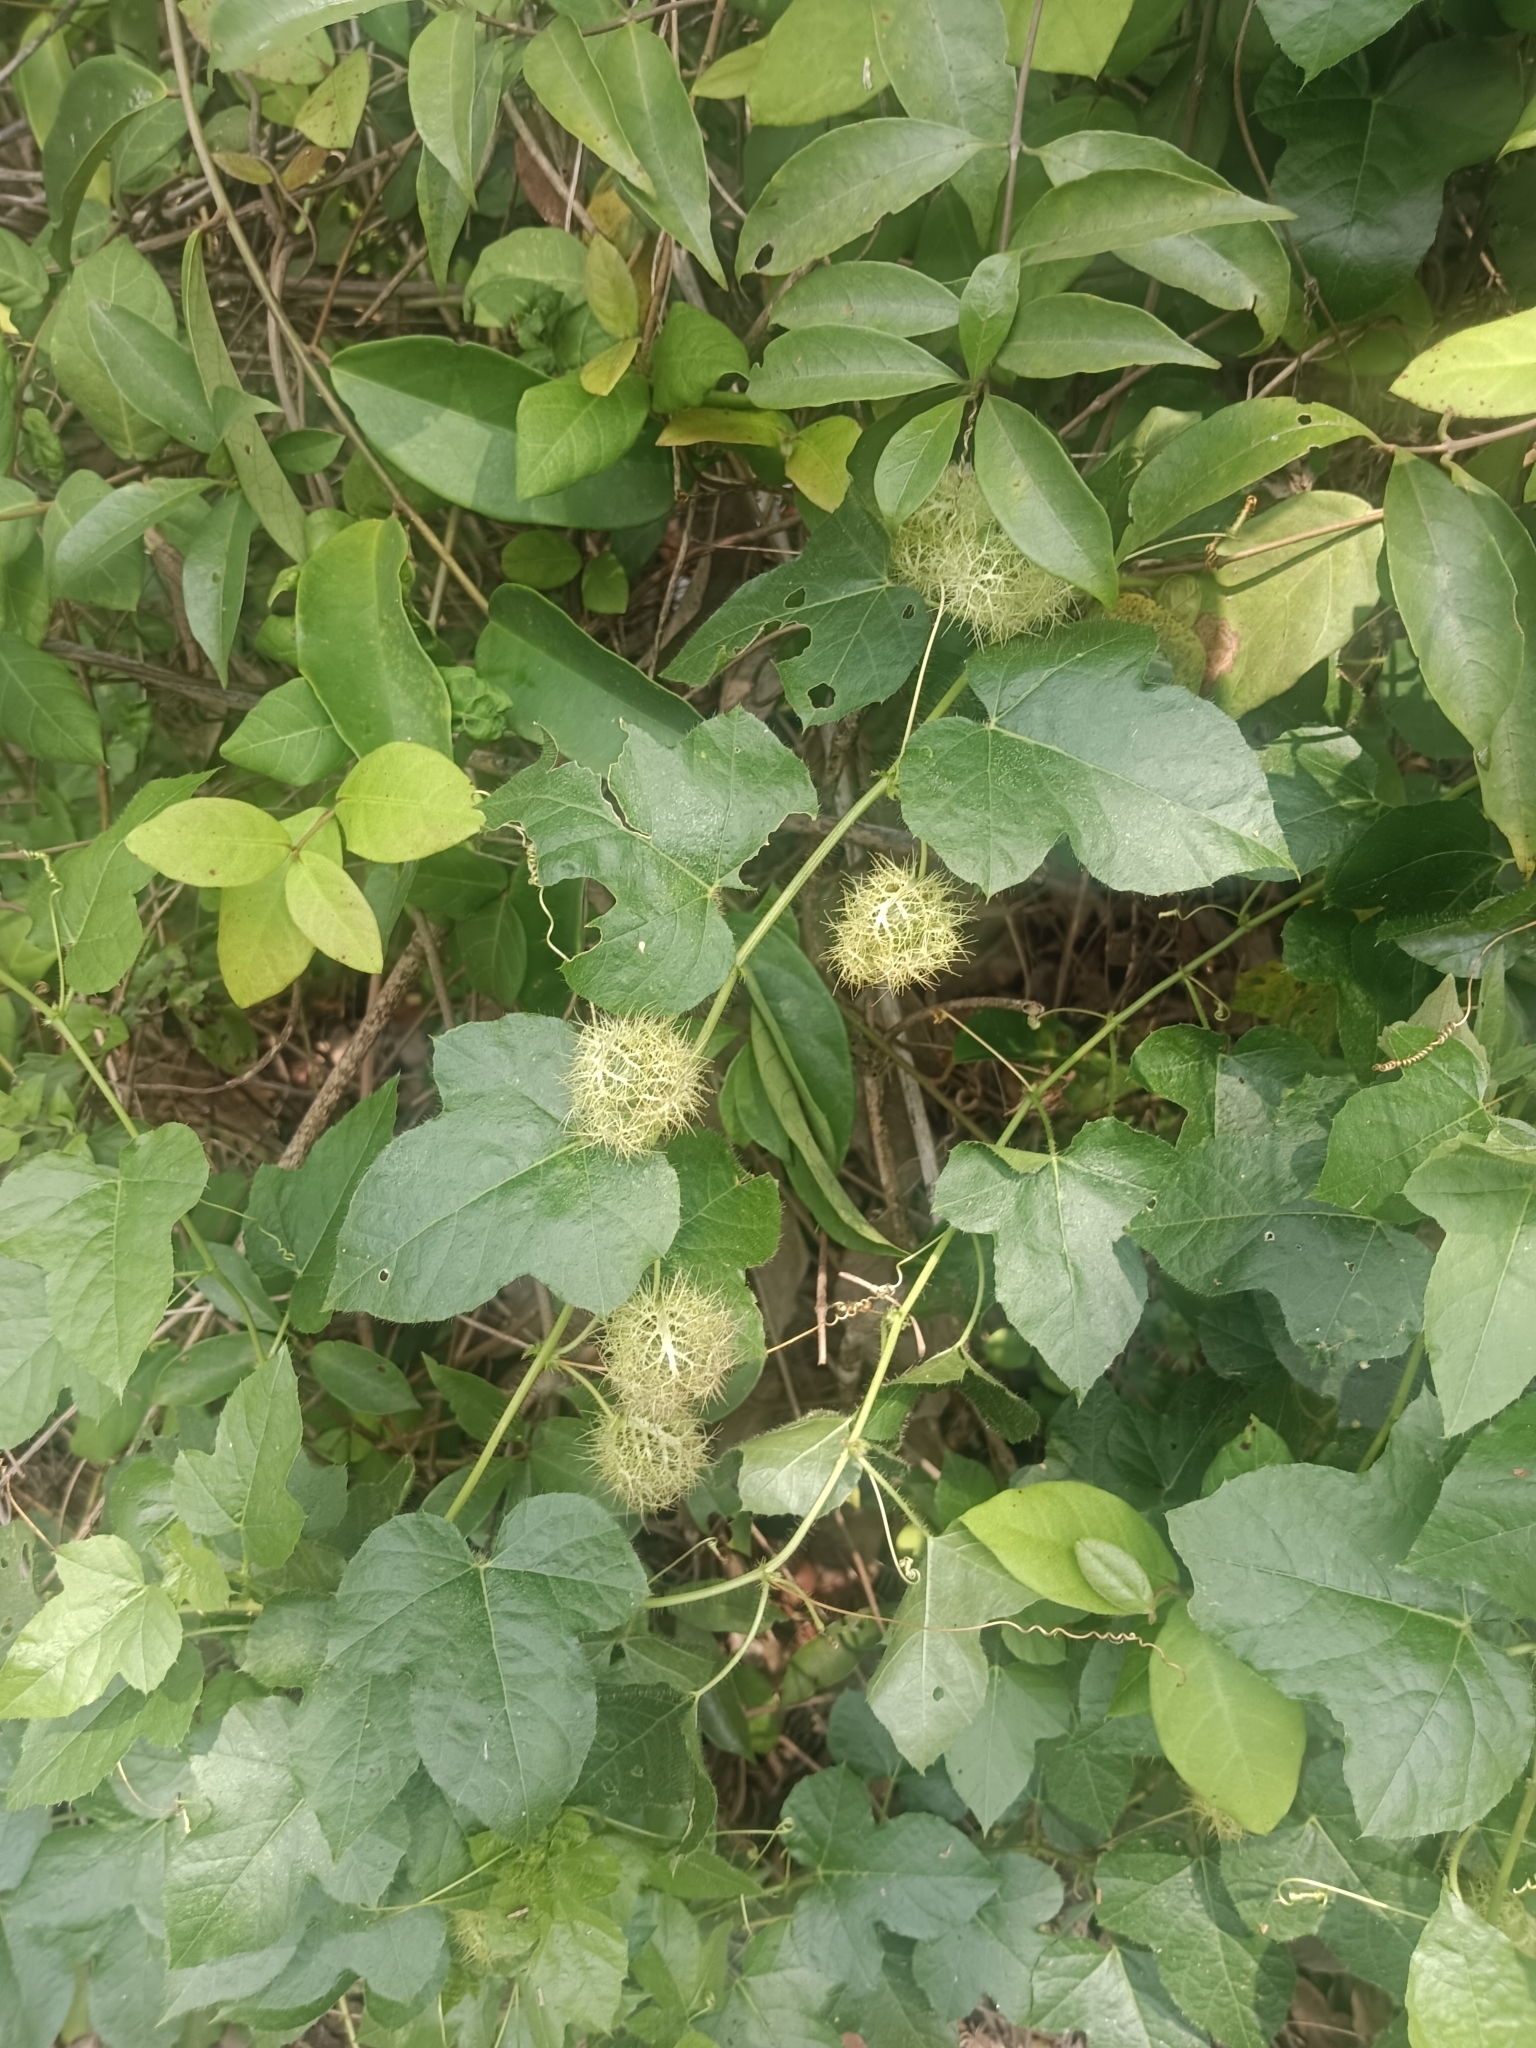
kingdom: Plantae
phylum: Tracheophyta
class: Magnoliopsida
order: Malpighiales
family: Passifloraceae
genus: Passiflora
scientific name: Passiflora vesicaria
